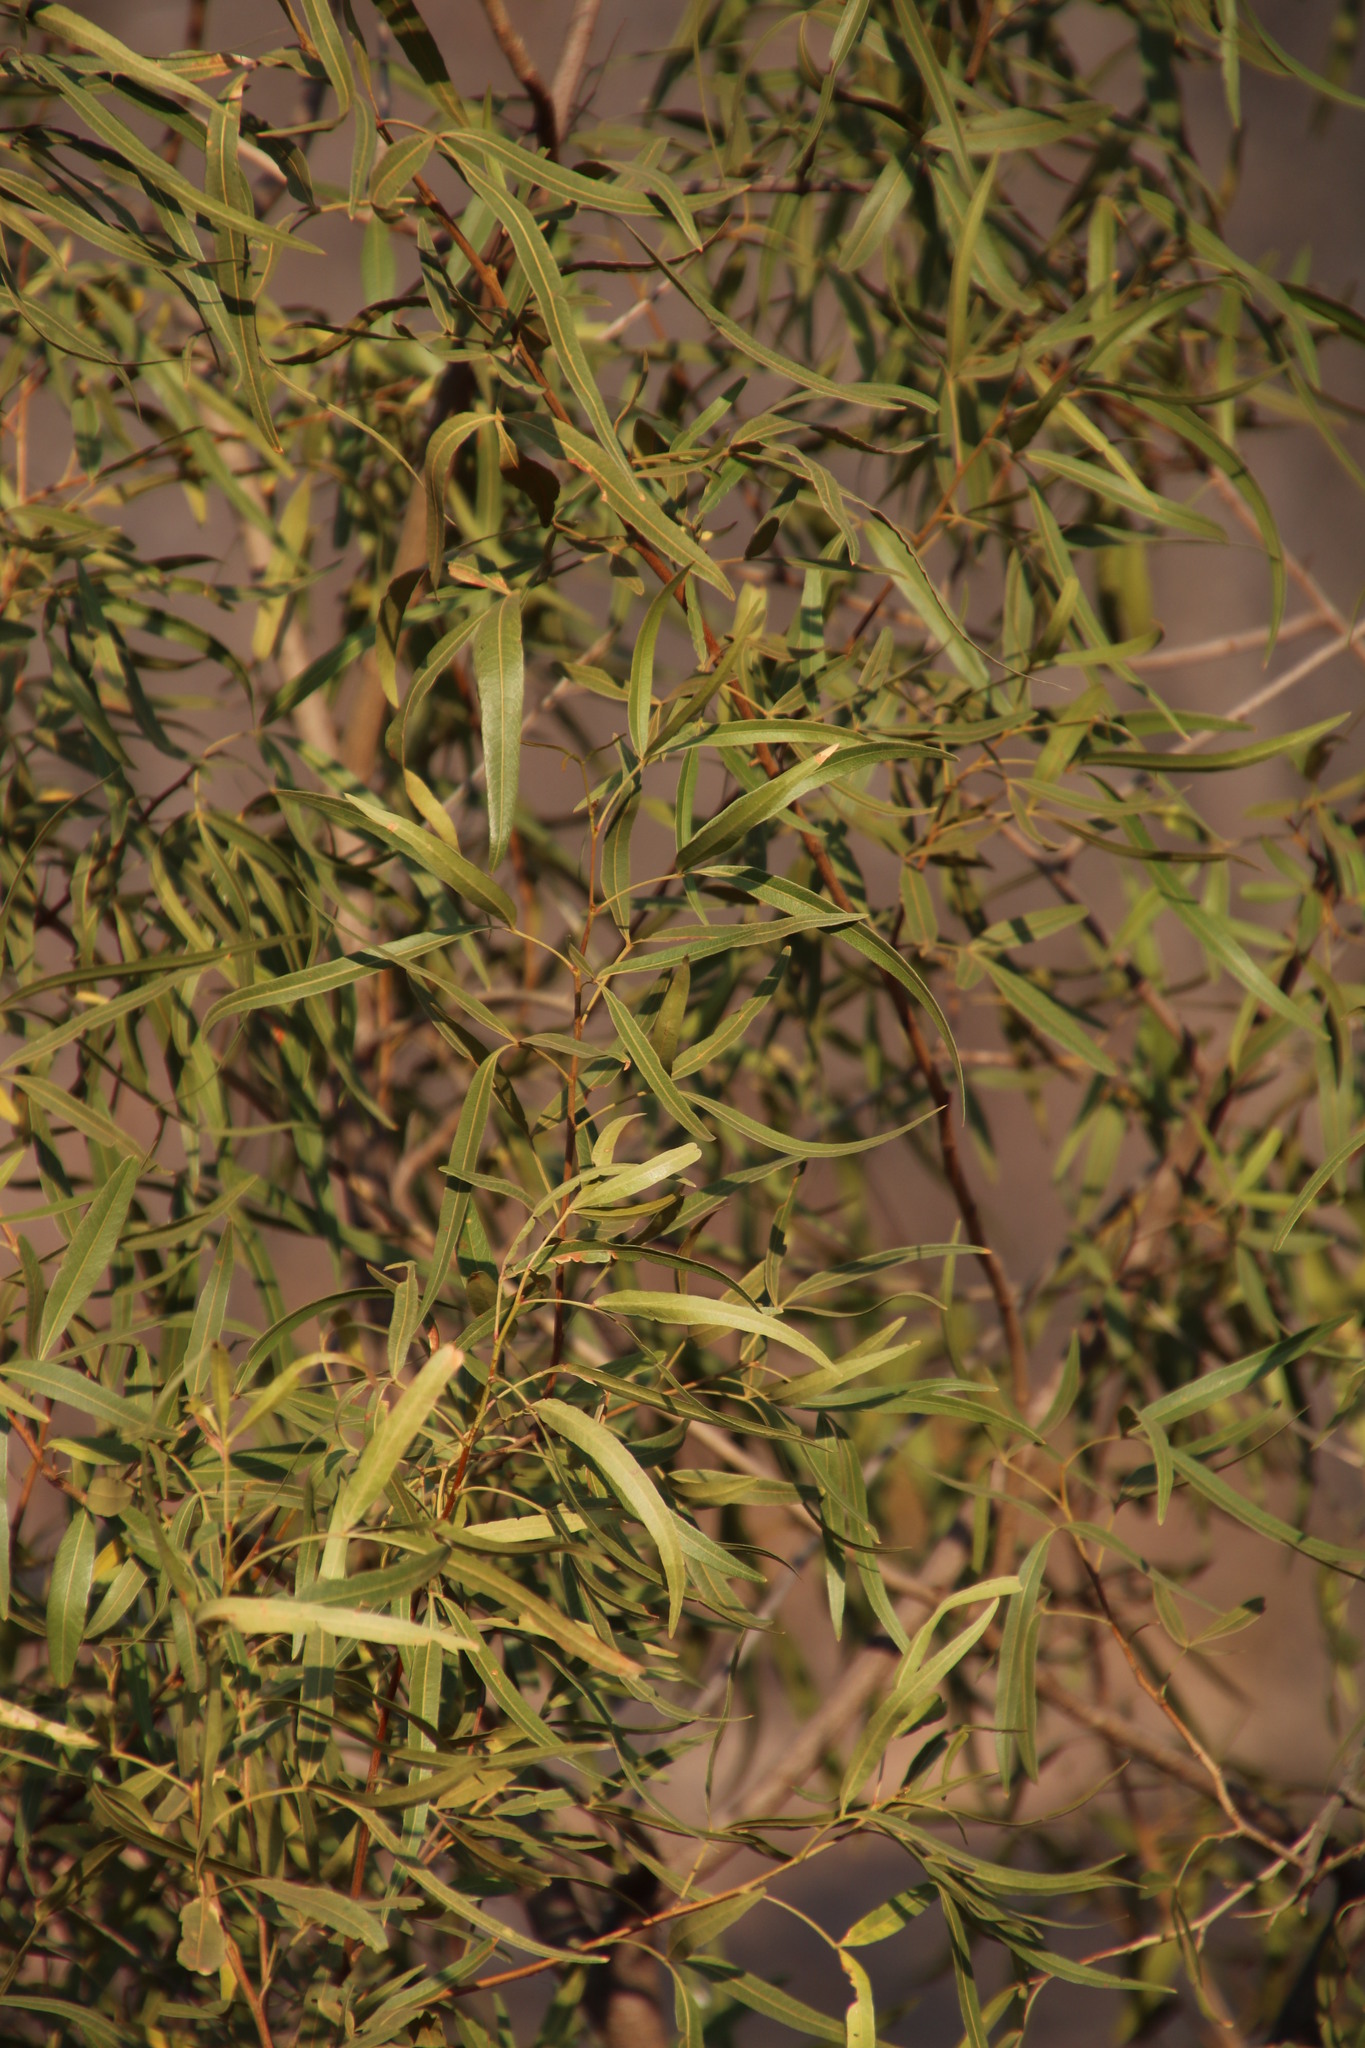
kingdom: Plantae
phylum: Tracheophyta
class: Magnoliopsida
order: Sapindales
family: Anacardiaceae
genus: Searsia
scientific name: Searsia lancea
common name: Cashew
